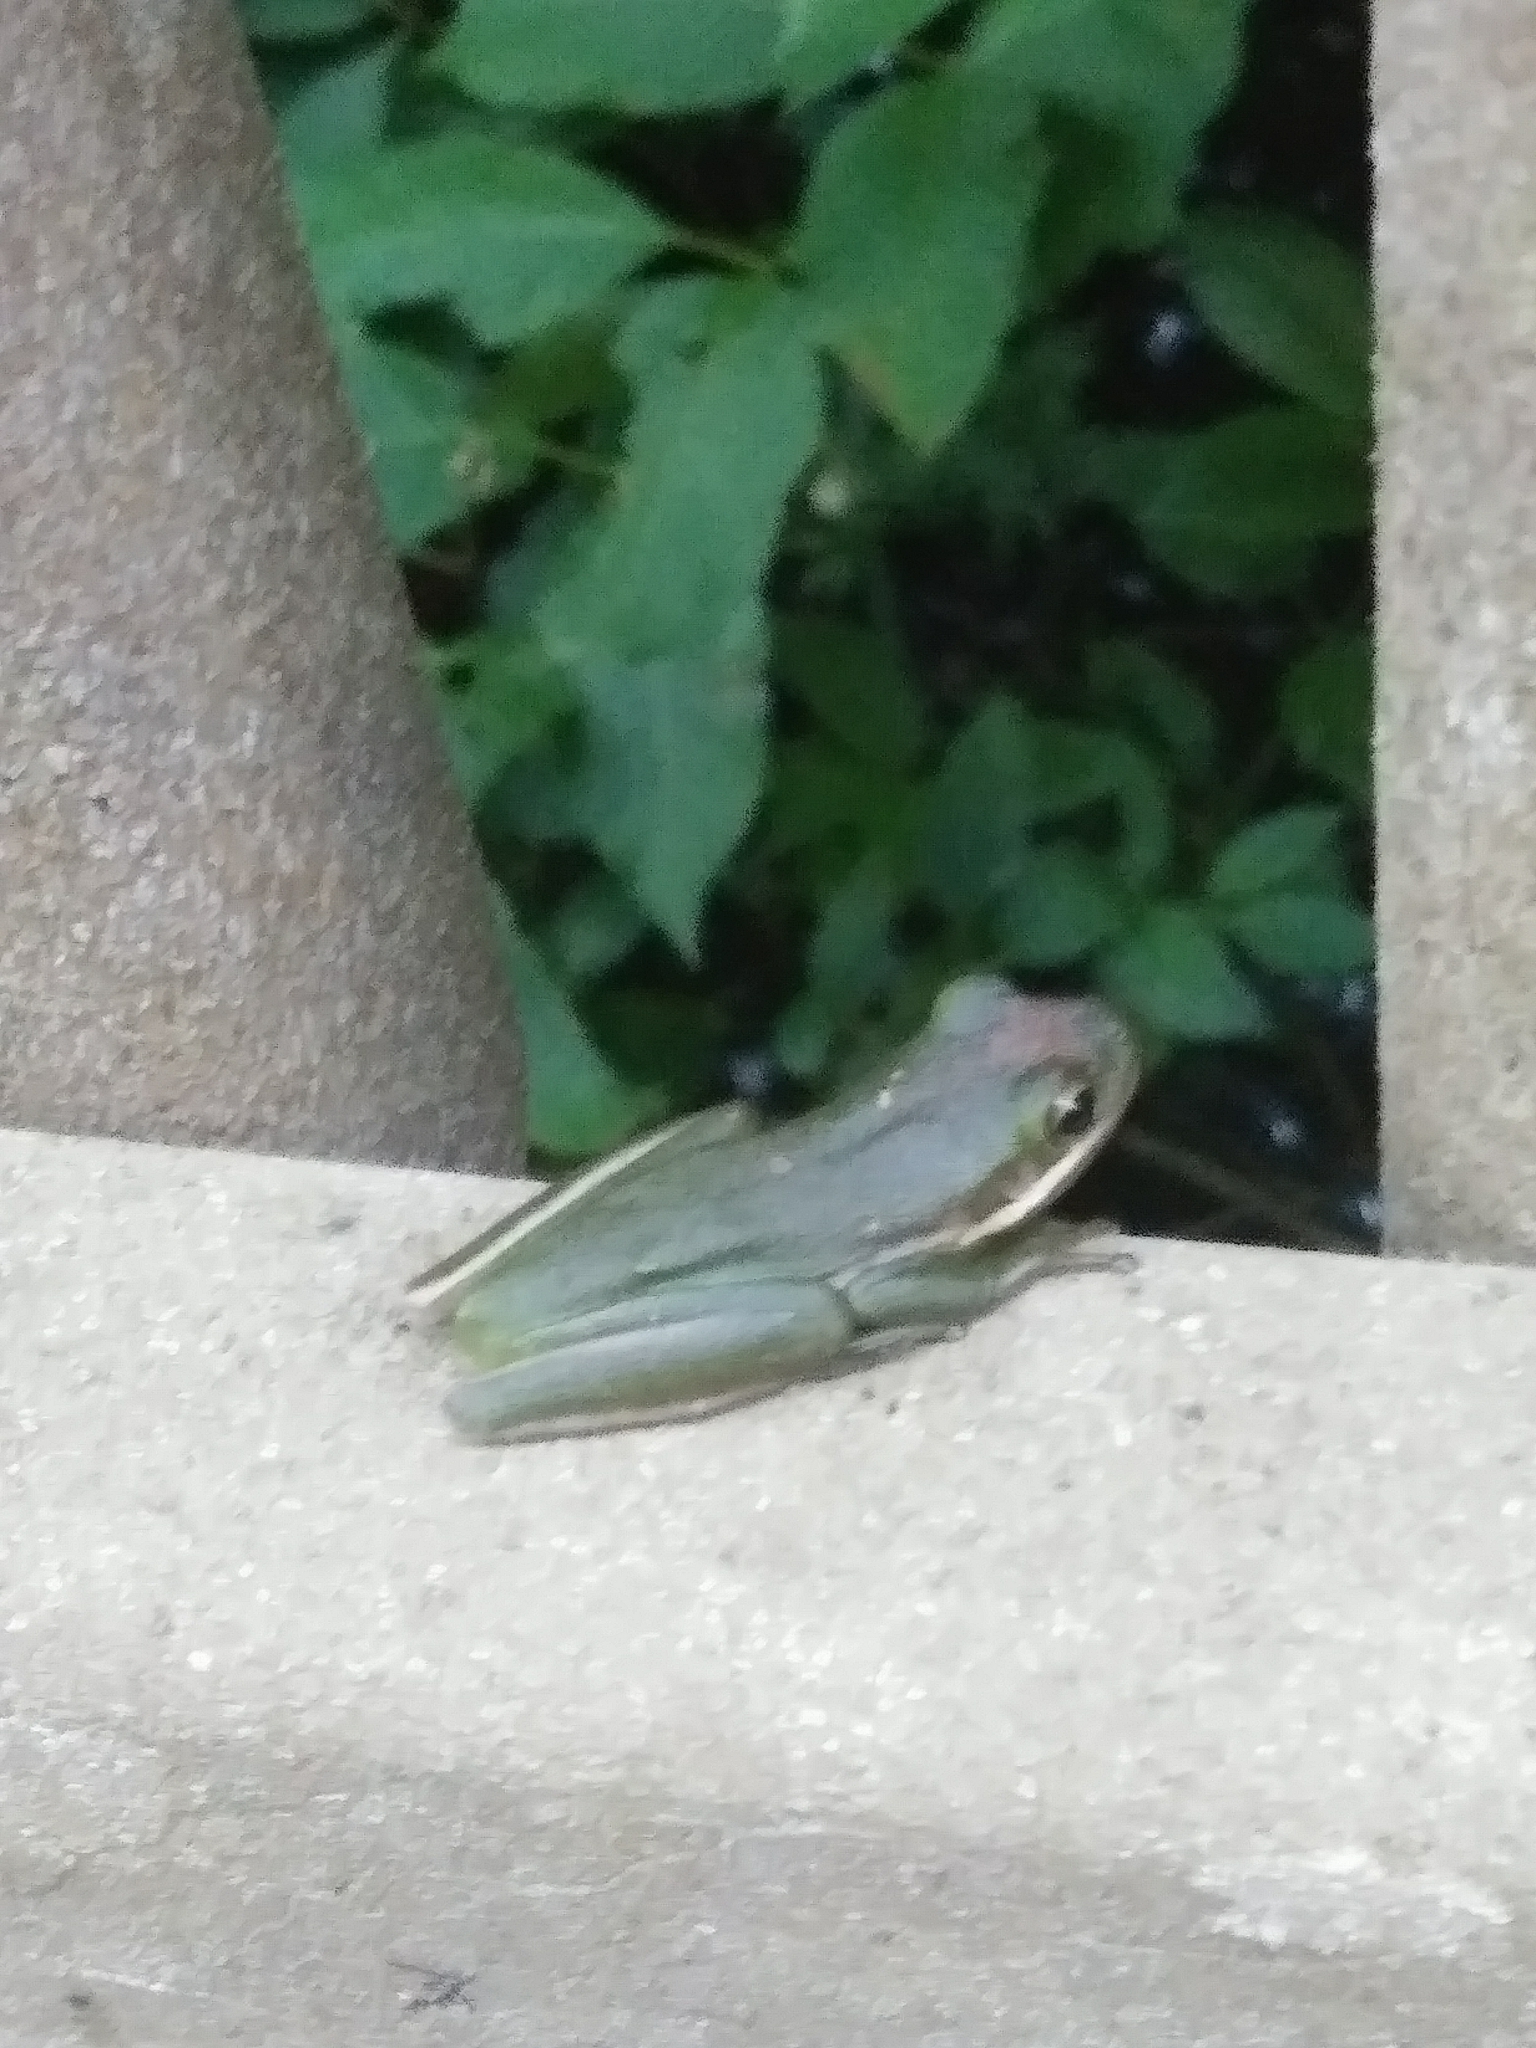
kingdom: Animalia
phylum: Chordata
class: Amphibia
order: Anura
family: Hylidae
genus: Dryophytes
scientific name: Dryophytes cinereus
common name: Green treefrog
